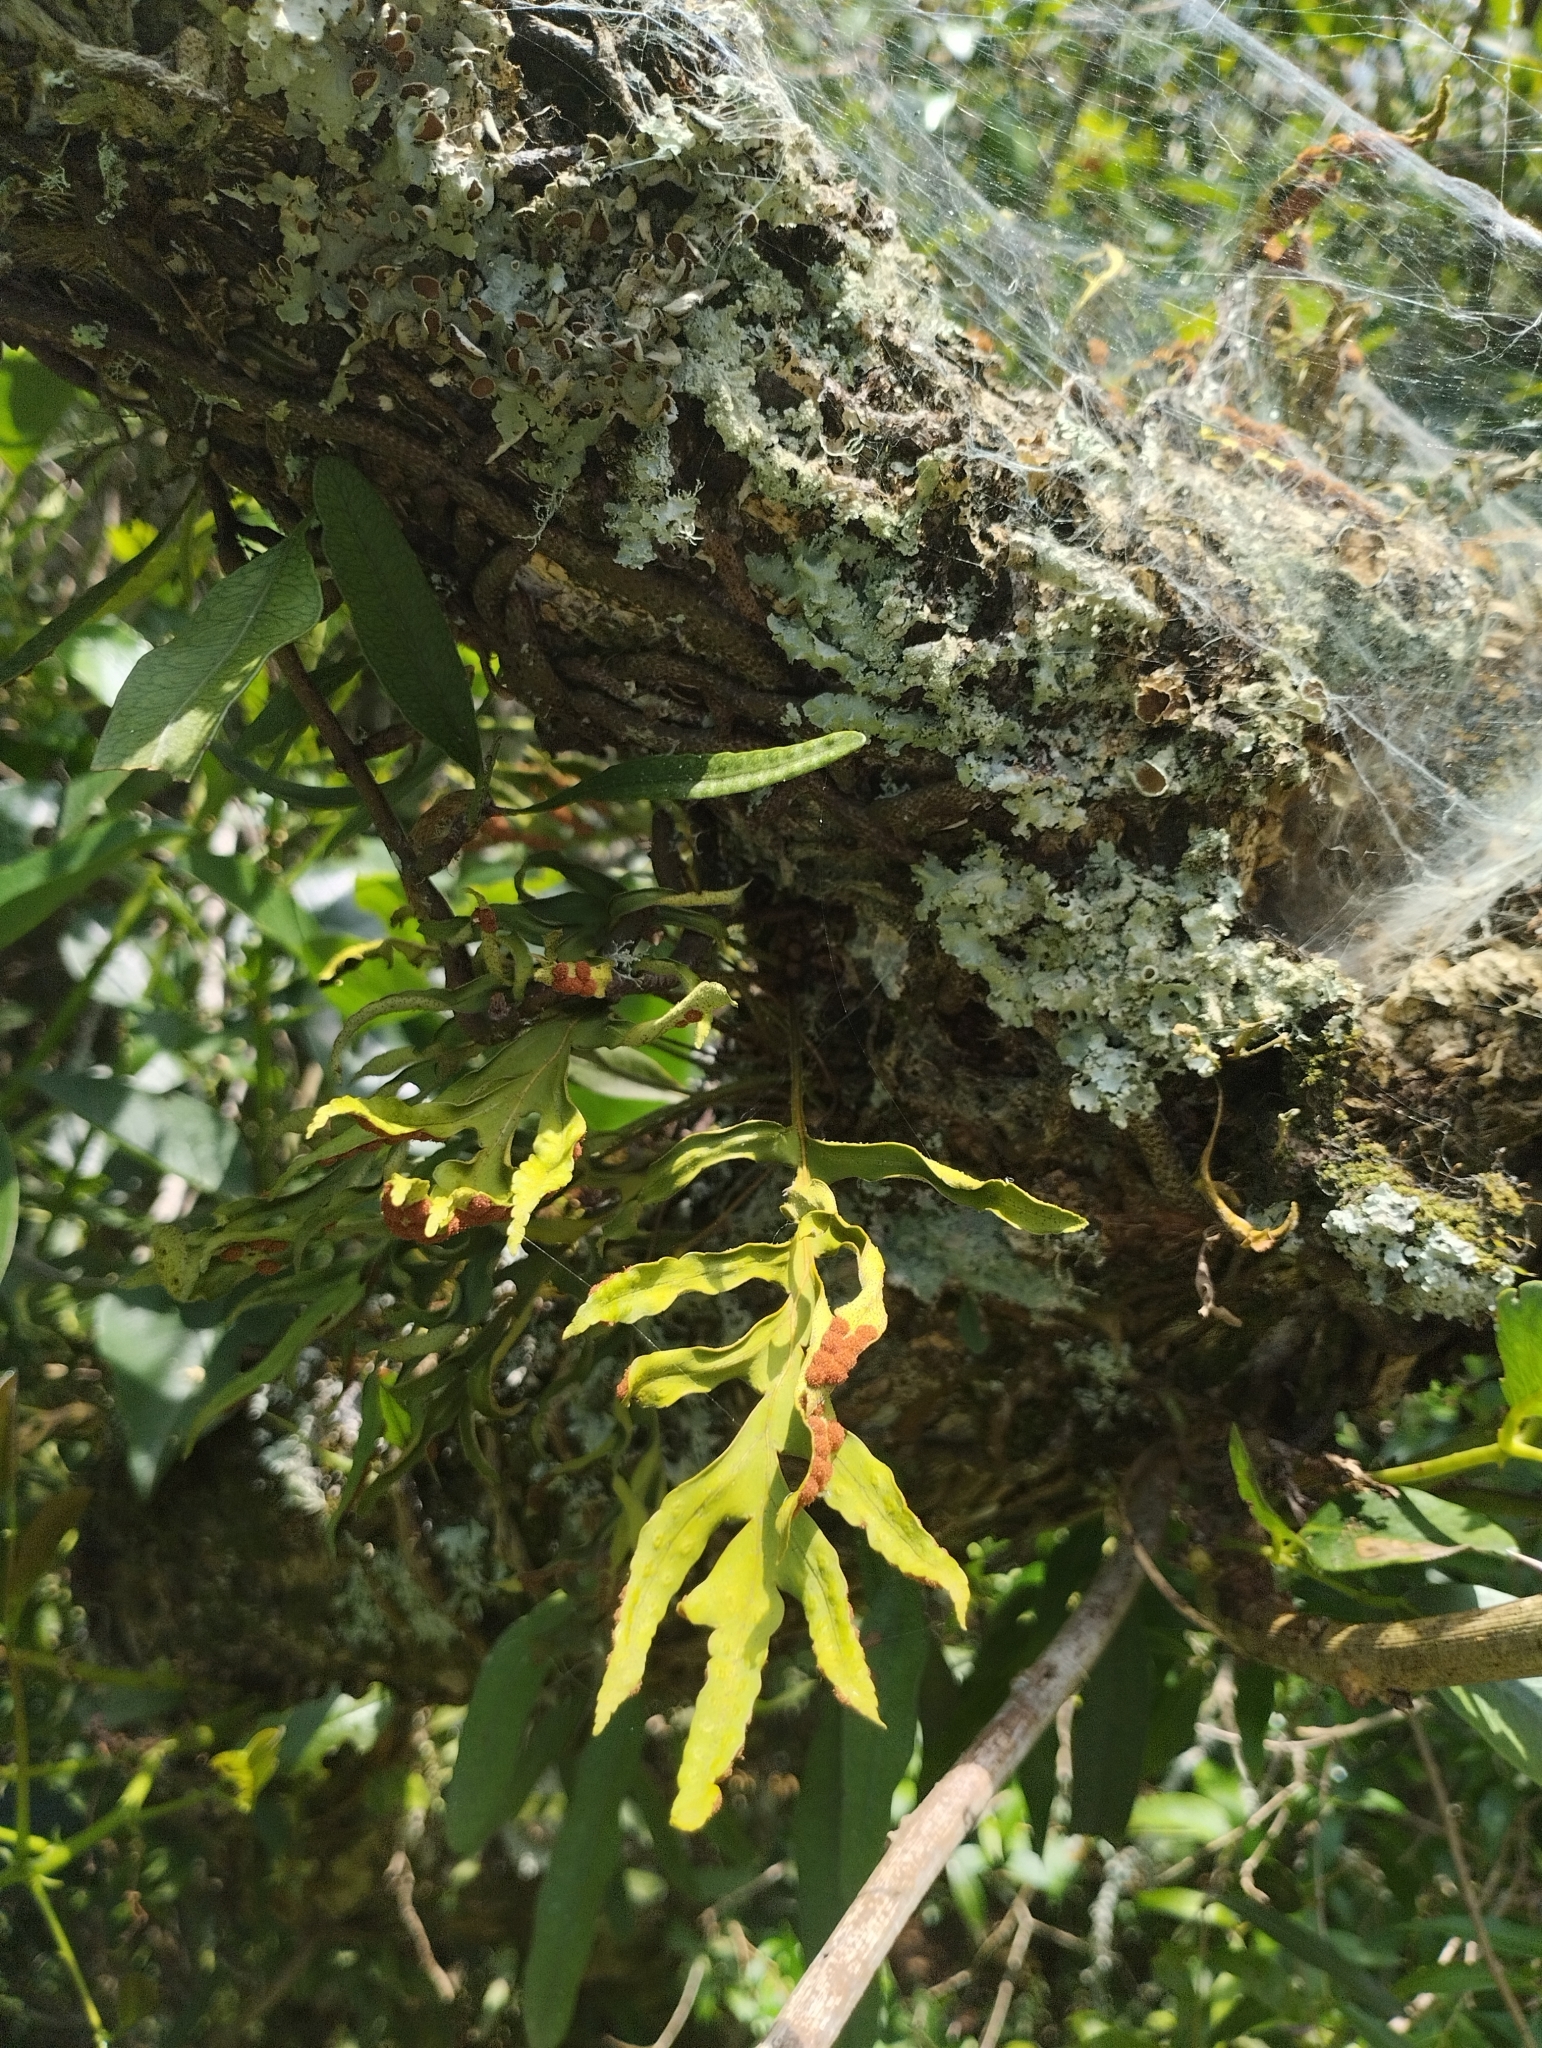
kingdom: Plantae
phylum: Tracheophyta
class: Polypodiopsida
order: Polypodiales
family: Polypodiaceae
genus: Pleopeltis
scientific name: Pleopeltis pleopeltifolia
